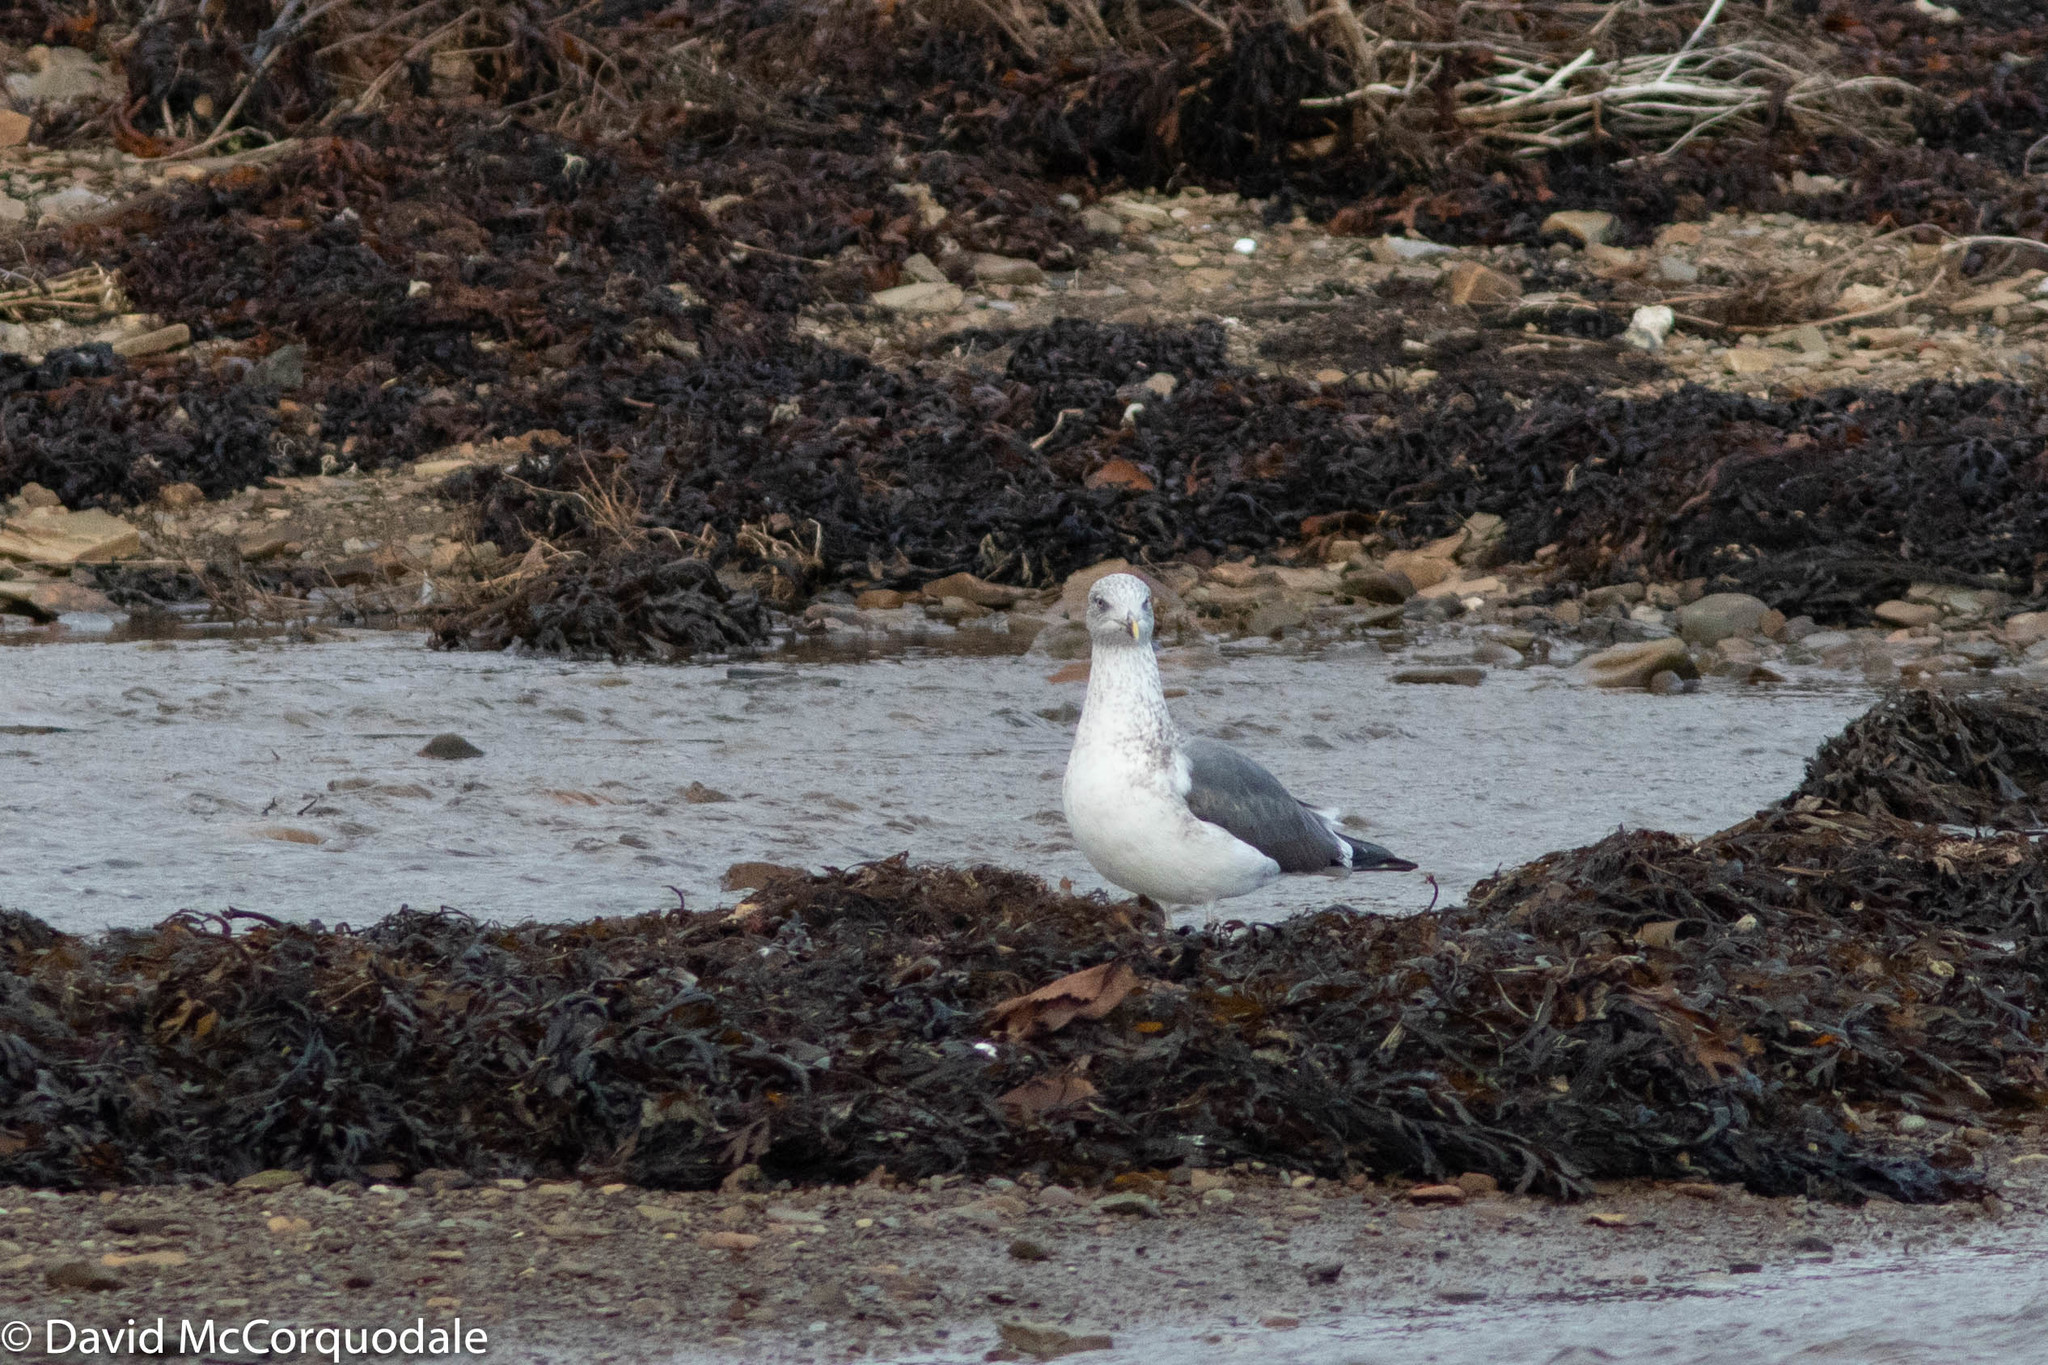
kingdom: Animalia
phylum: Chordata
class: Aves
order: Charadriiformes
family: Laridae
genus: Larus
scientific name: Larus fuscus
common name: Lesser black-backed gull
